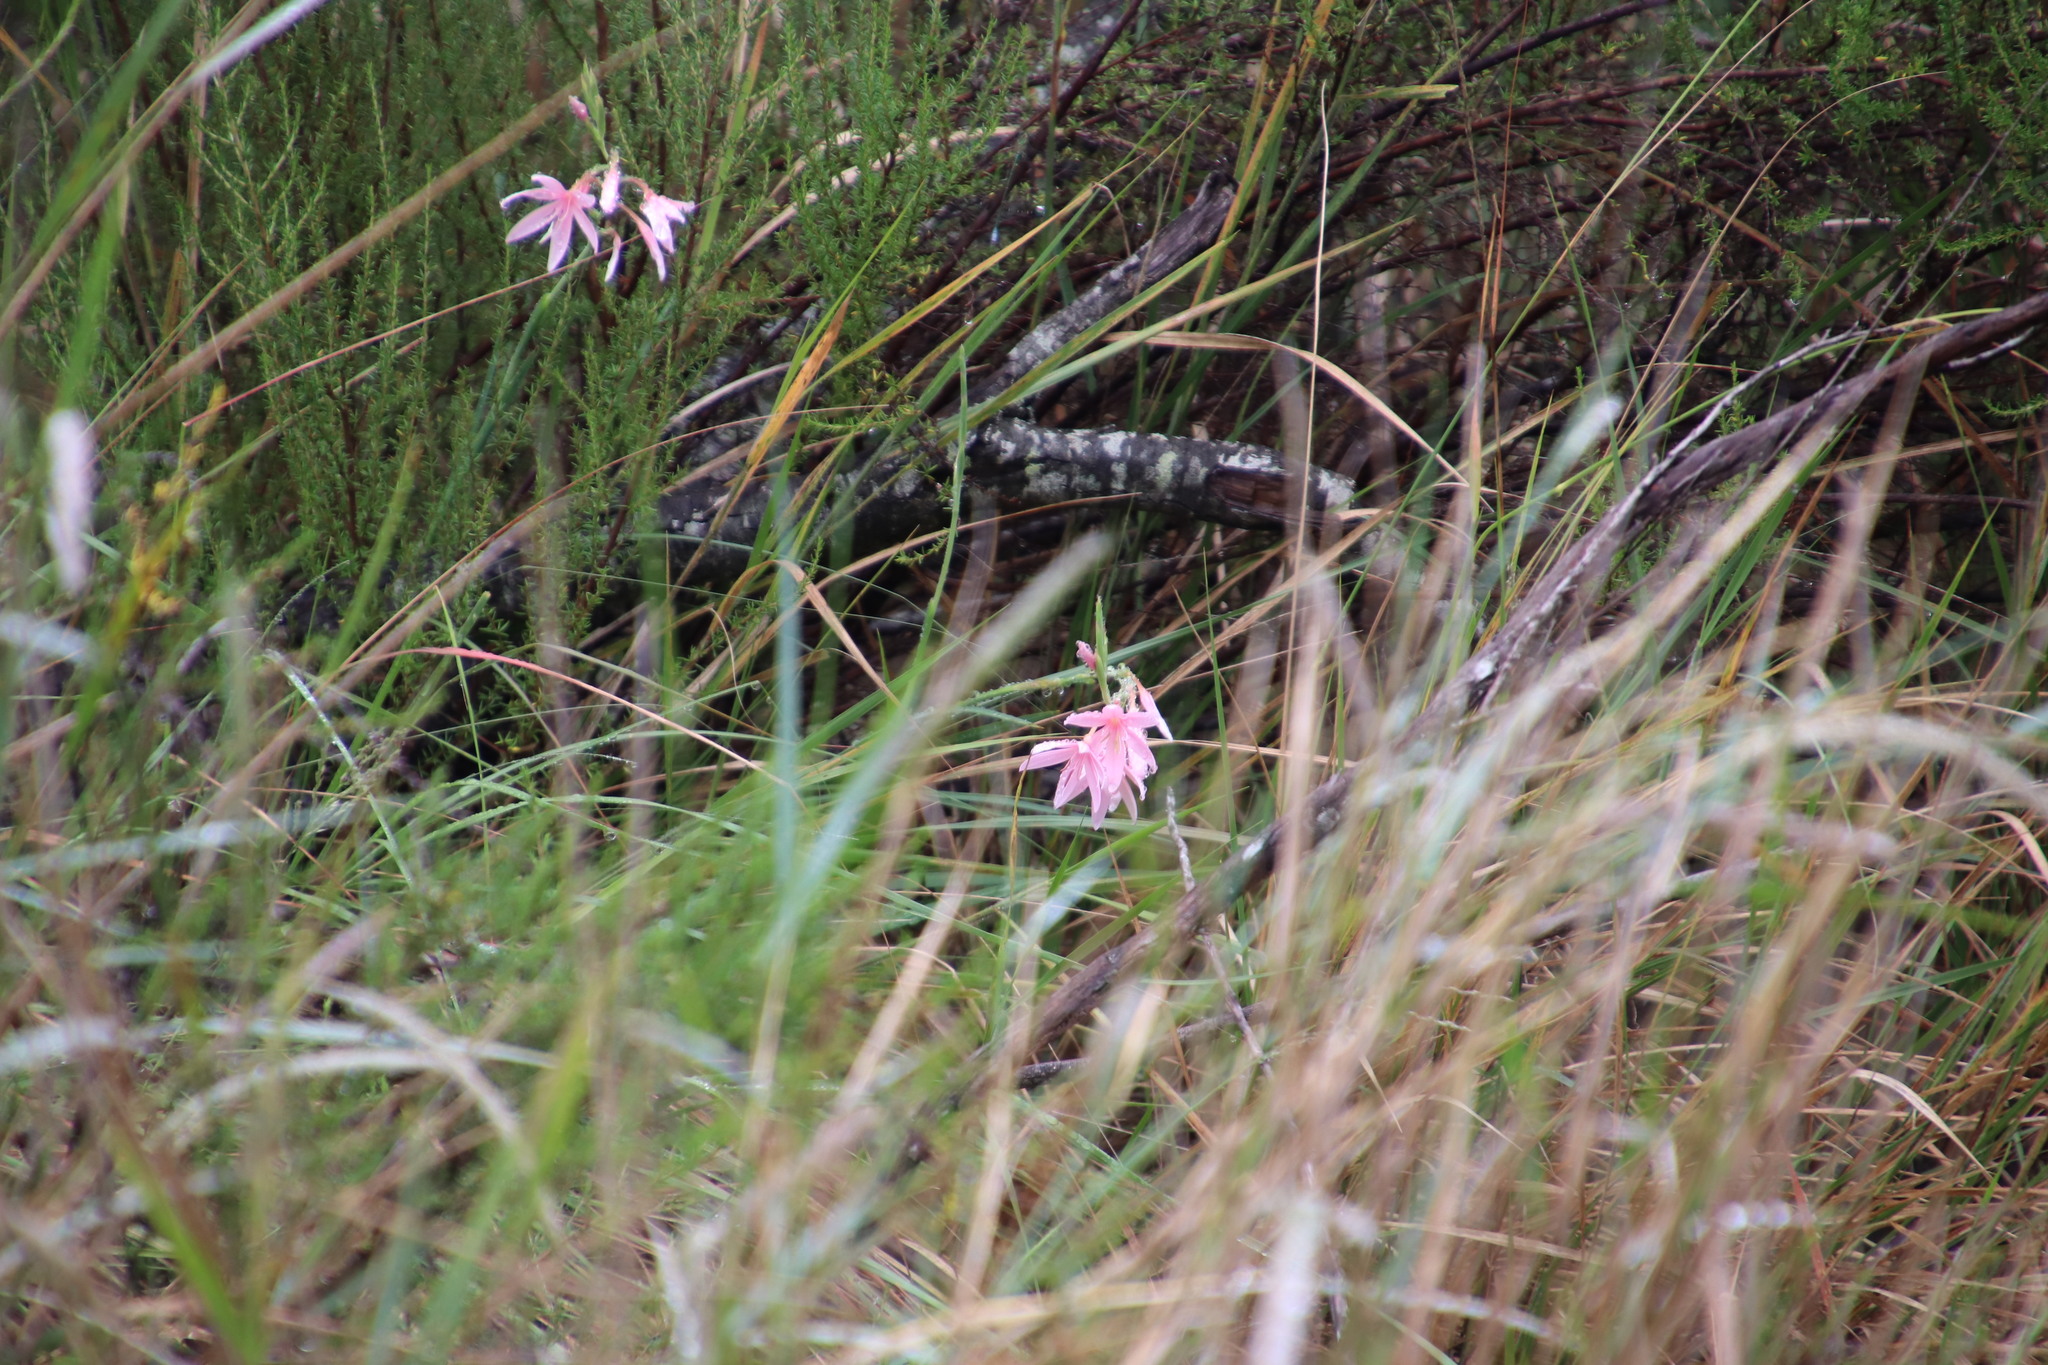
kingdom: Plantae
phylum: Tracheophyta
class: Liliopsida
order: Asparagales
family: Iridaceae
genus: Hesperantha
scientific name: Hesperantha coccinea
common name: River-lily
